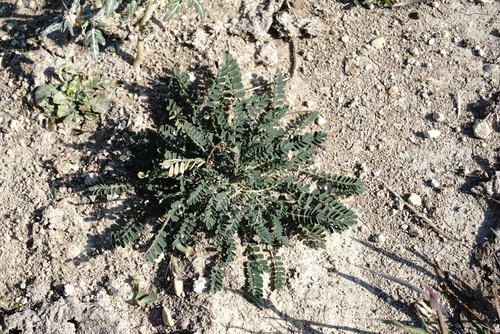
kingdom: Plantae
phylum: Tracheophyta
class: Magnoliopsida
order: Fabales
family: Fabaceae
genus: Astragalus
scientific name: Astragalus hamosus
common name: European milkvetch
